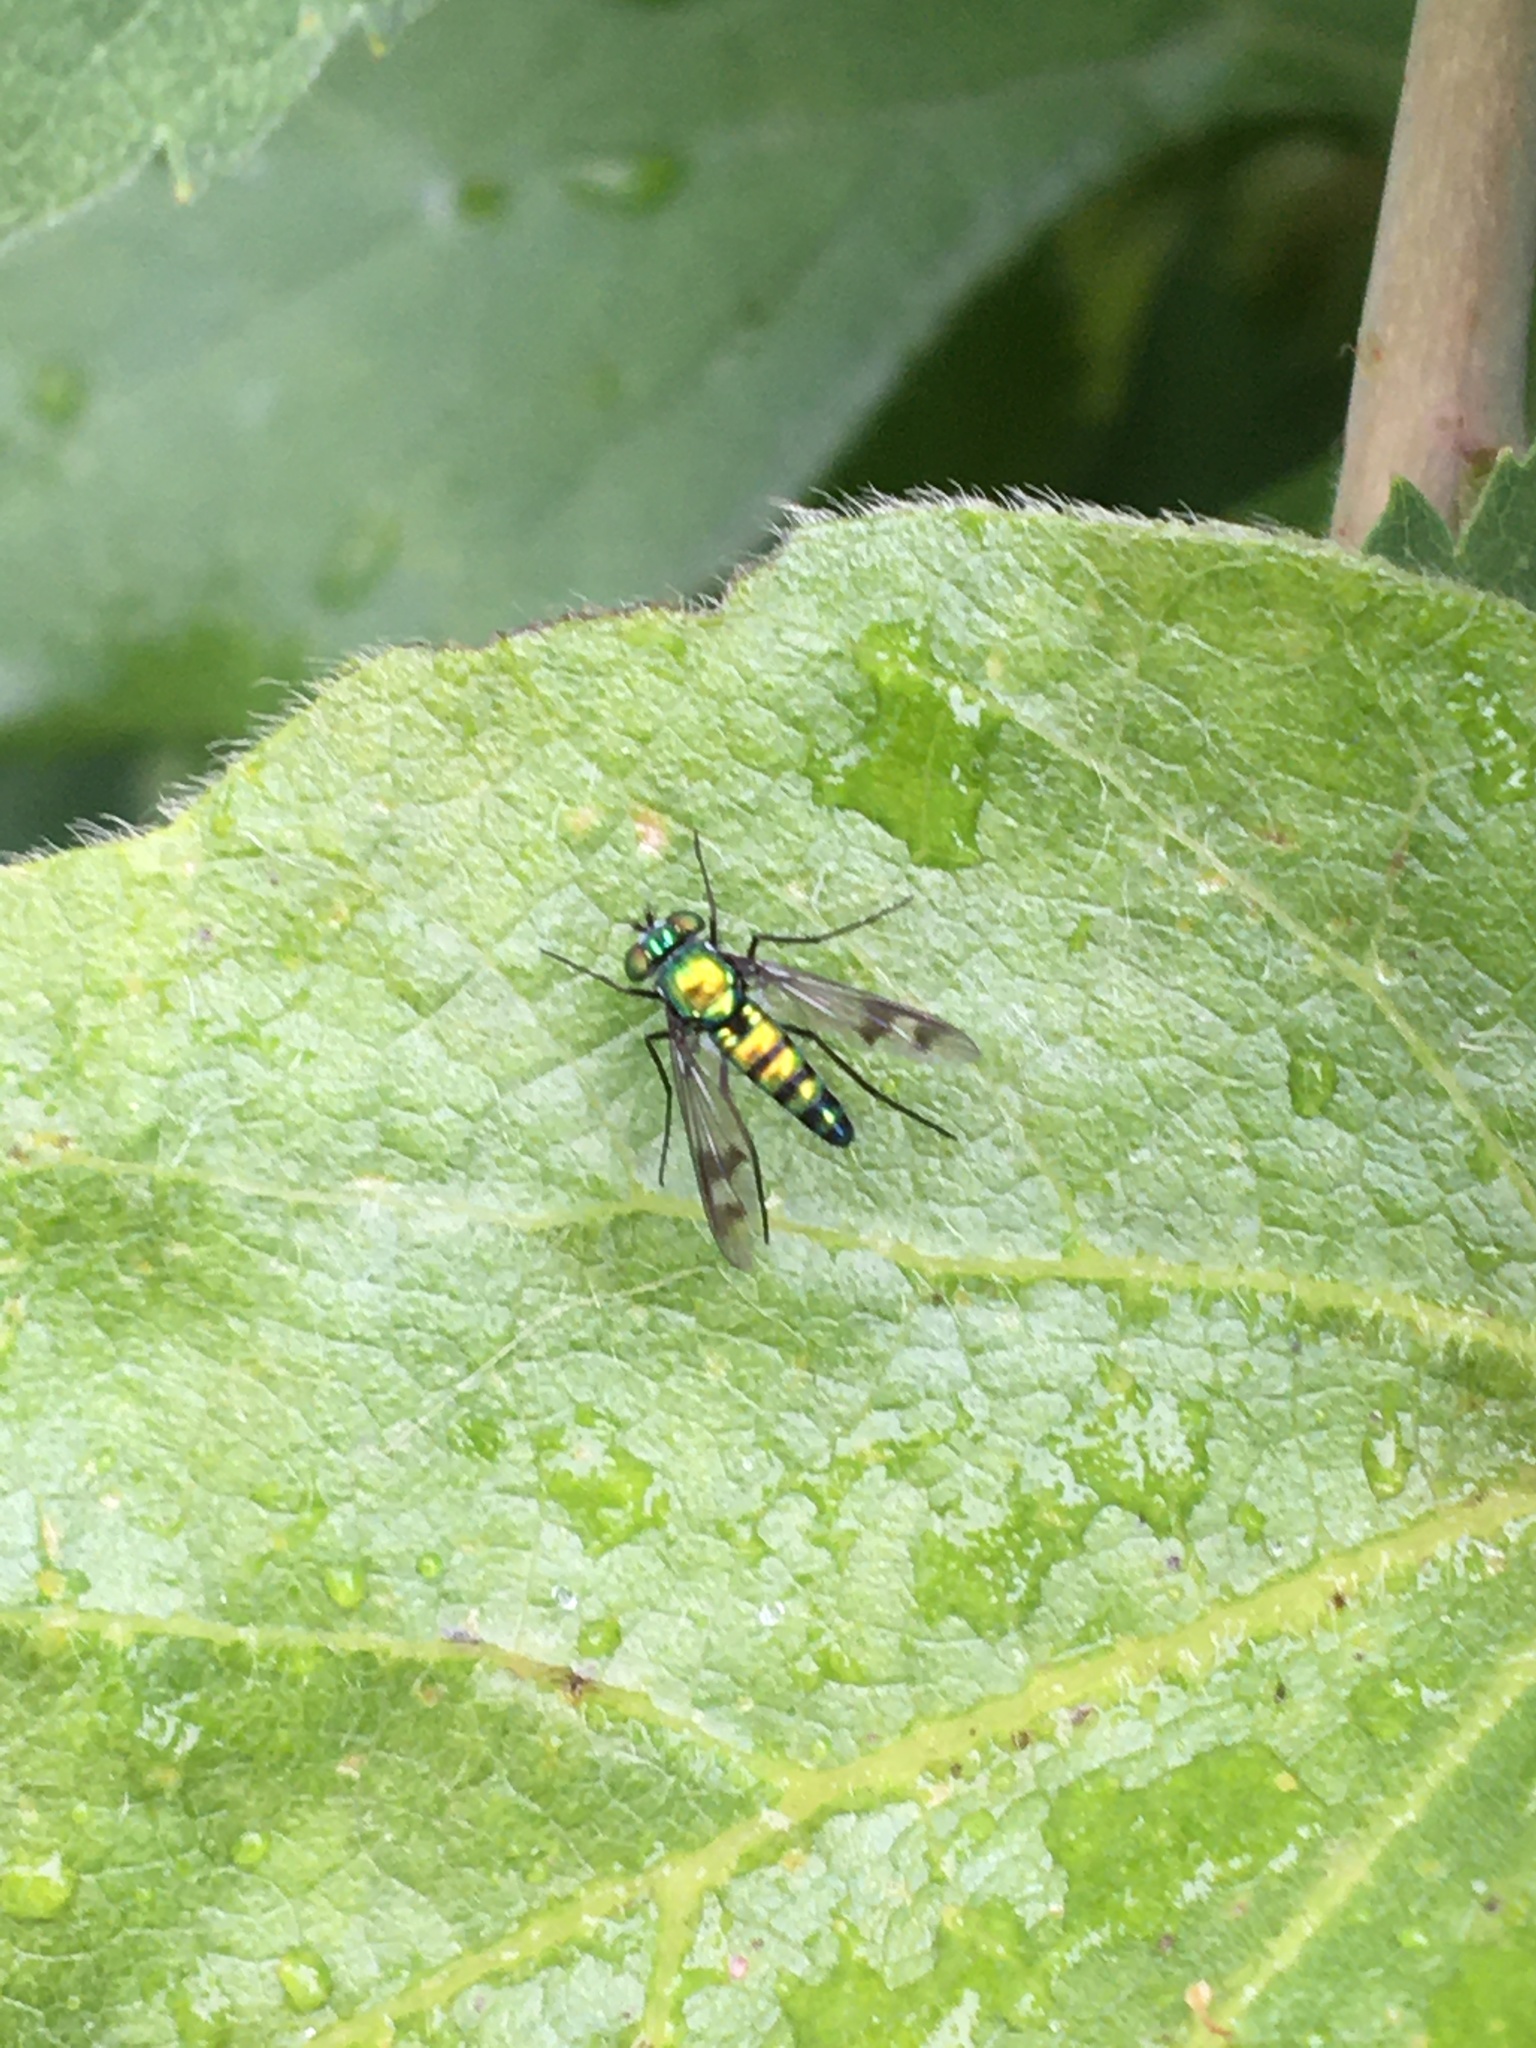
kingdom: Animalia
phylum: Arthropoda
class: Insecta
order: Diptera
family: Dolichopodidae
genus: Condylostylus
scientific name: Condylostylus occidentalis
